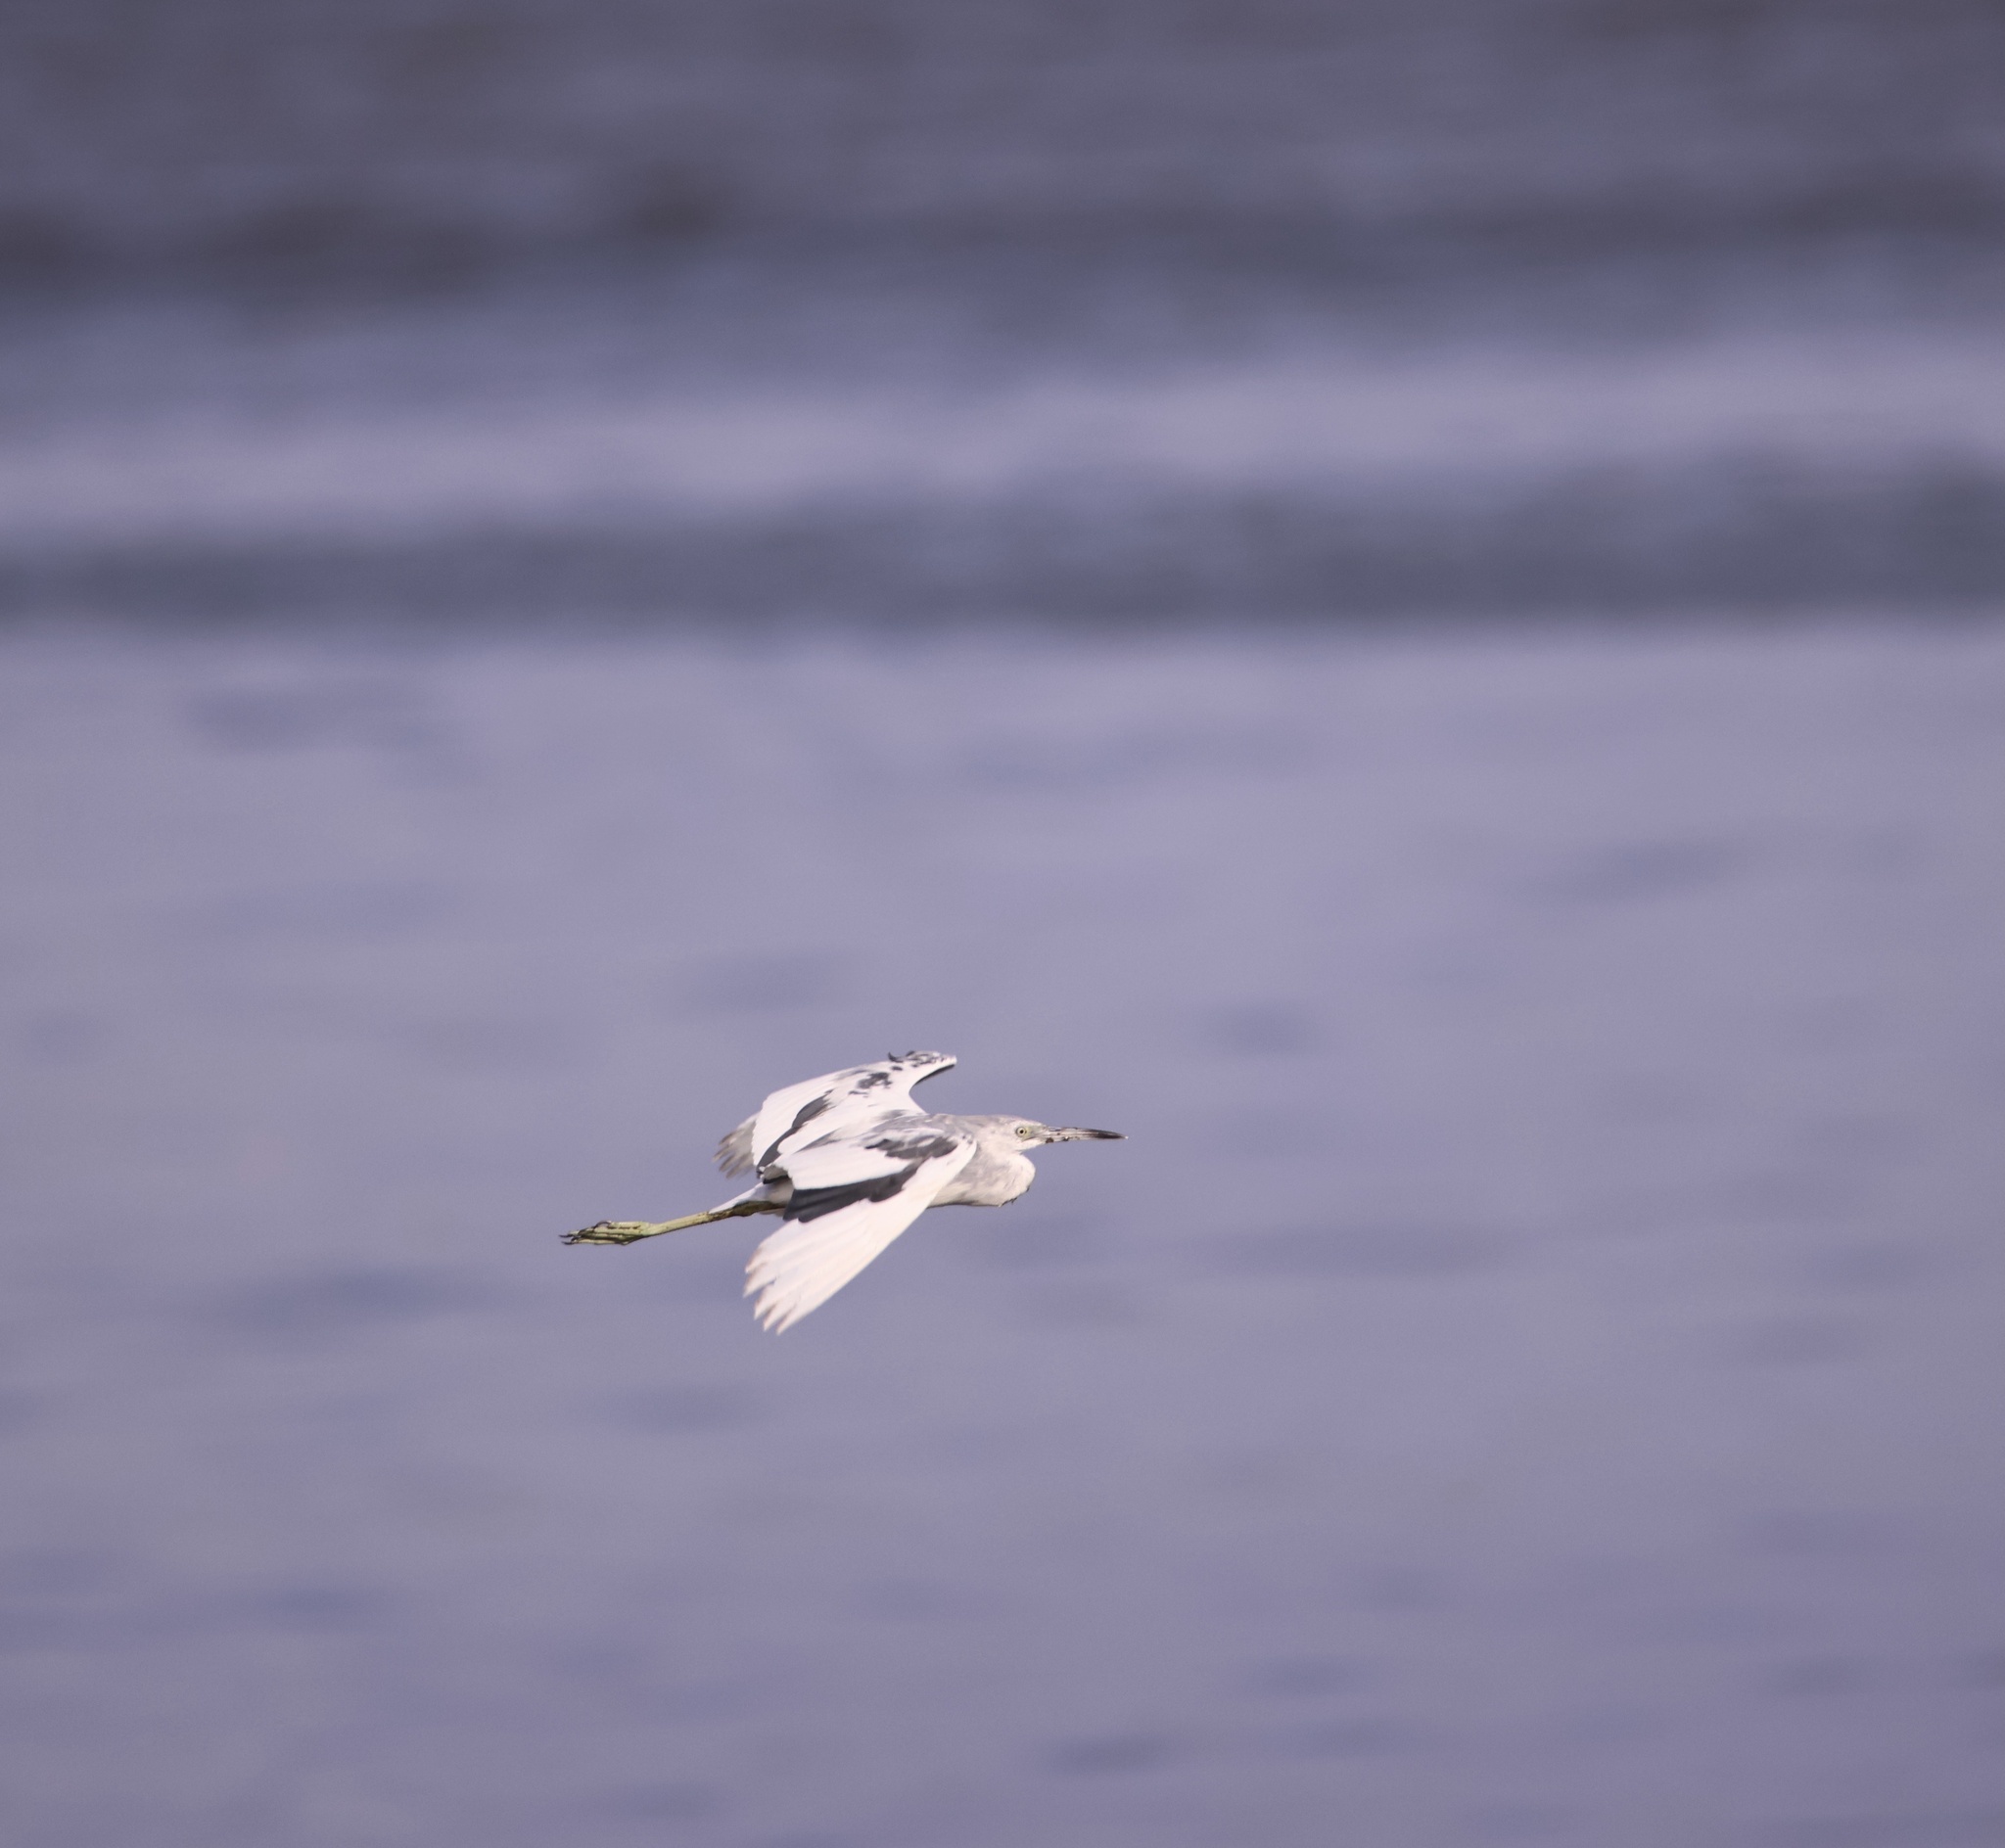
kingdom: Animalia
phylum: Chordata
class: Aves
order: Pelecaniformes
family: Ardeidae
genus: Egretta
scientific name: Egretta caerulea
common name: Little blue heron
